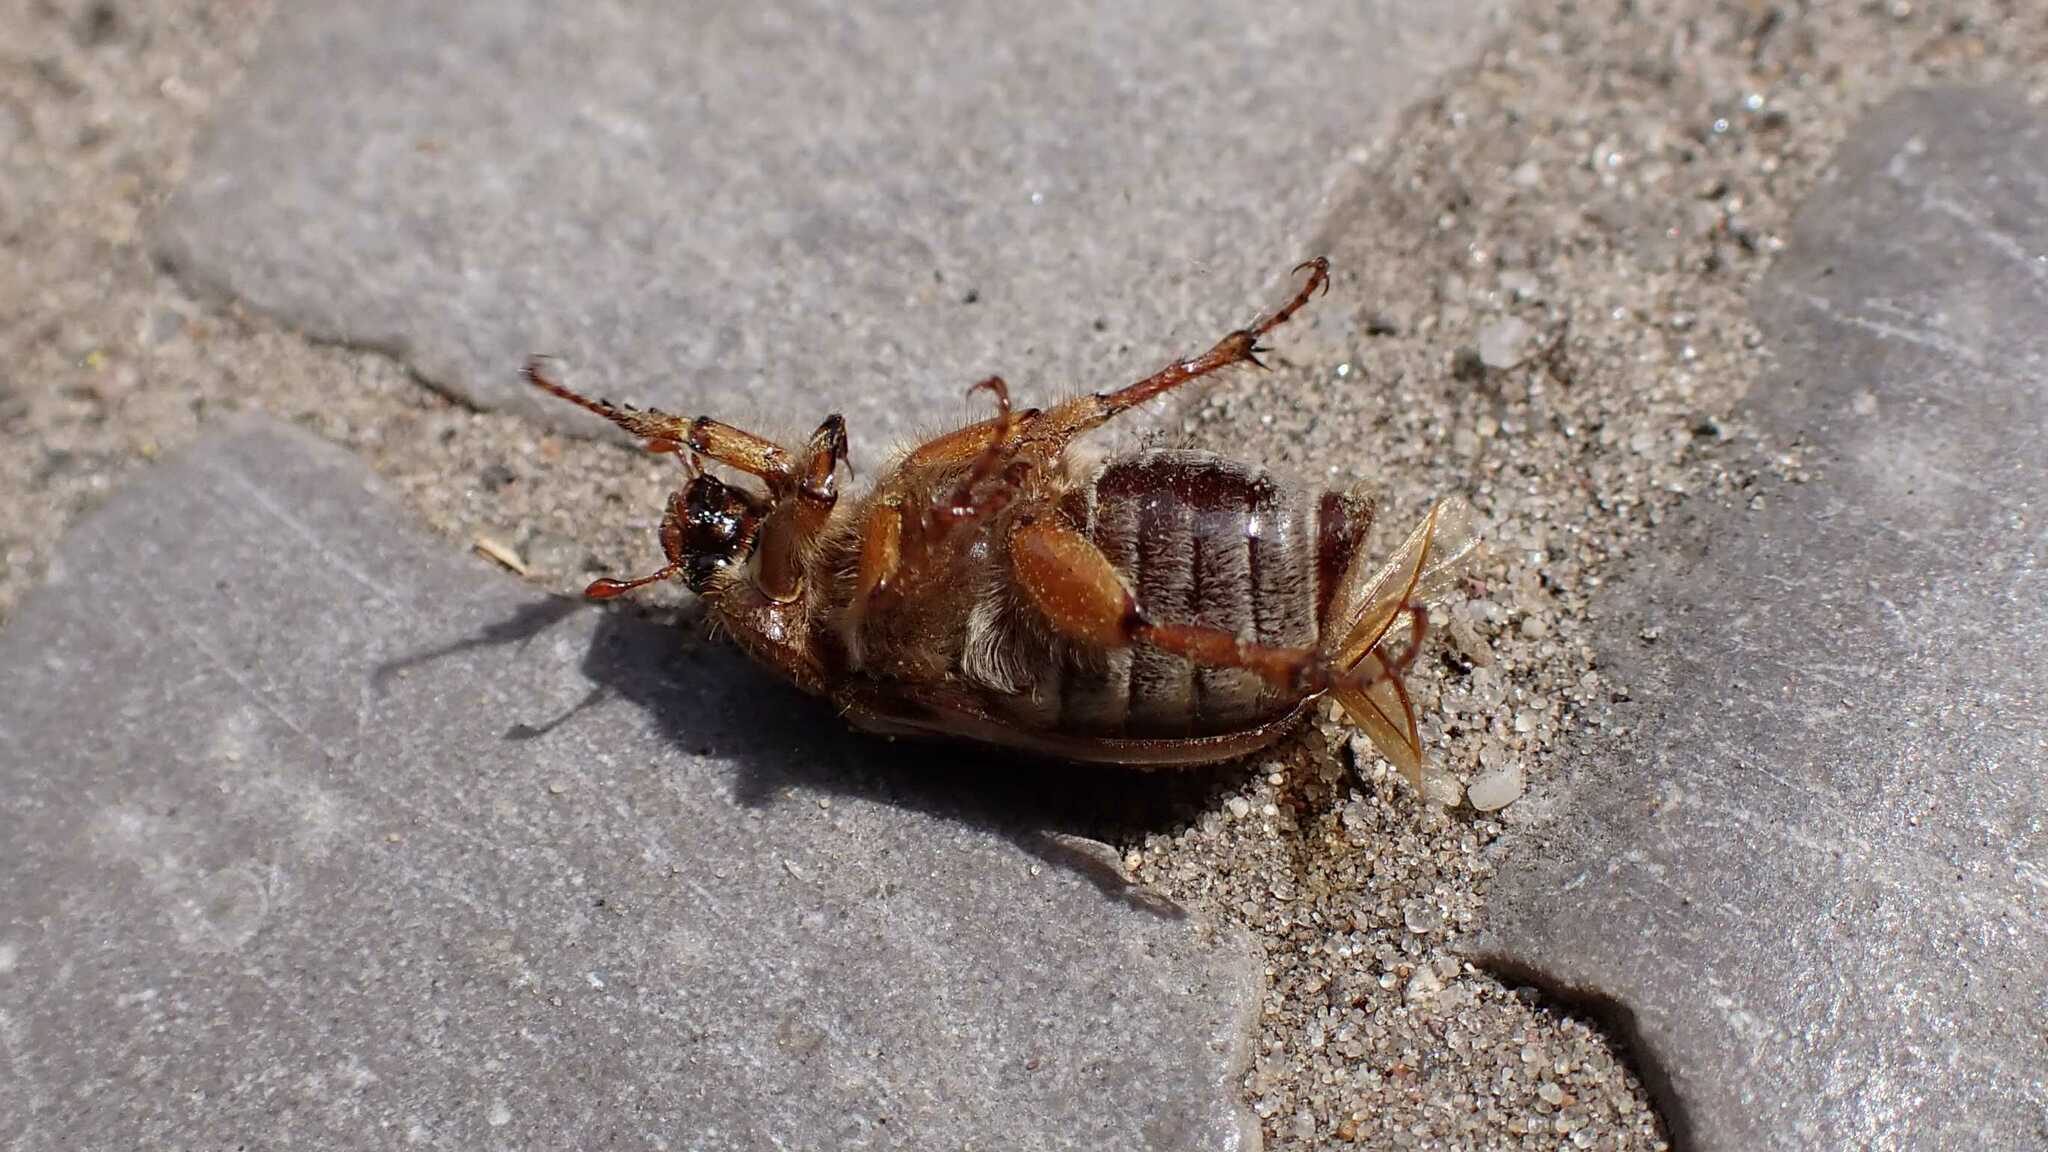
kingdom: Animalia
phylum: Arthropoda
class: Insecta
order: Coleoptera
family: Scarabaeidae
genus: Amphimallon
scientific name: Amphimallon solstitiale
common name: Summer chafer
